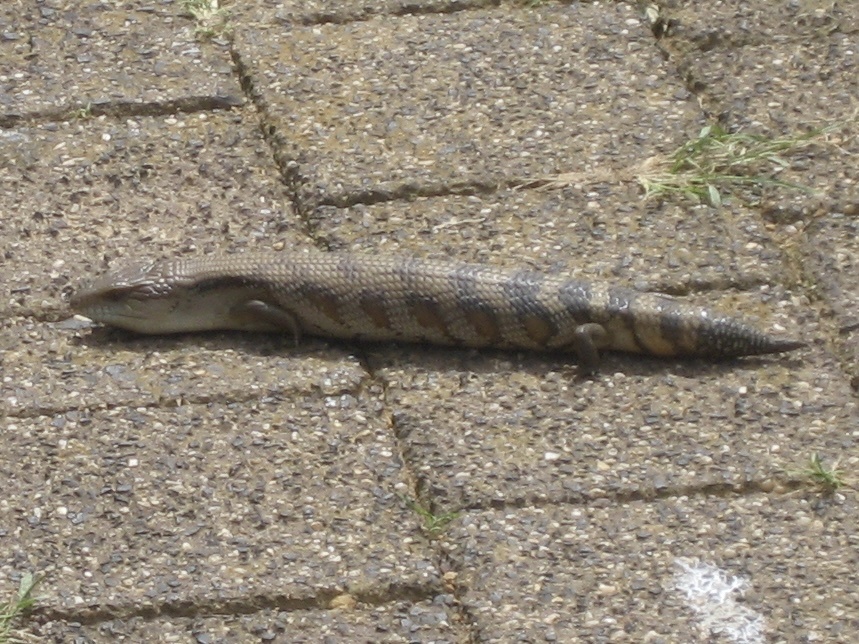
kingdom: Animalia
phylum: Chordata
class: Squamata
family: Scincidae
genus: Tiliqua
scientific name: Tiliqua scincoides
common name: Common bluetongue
